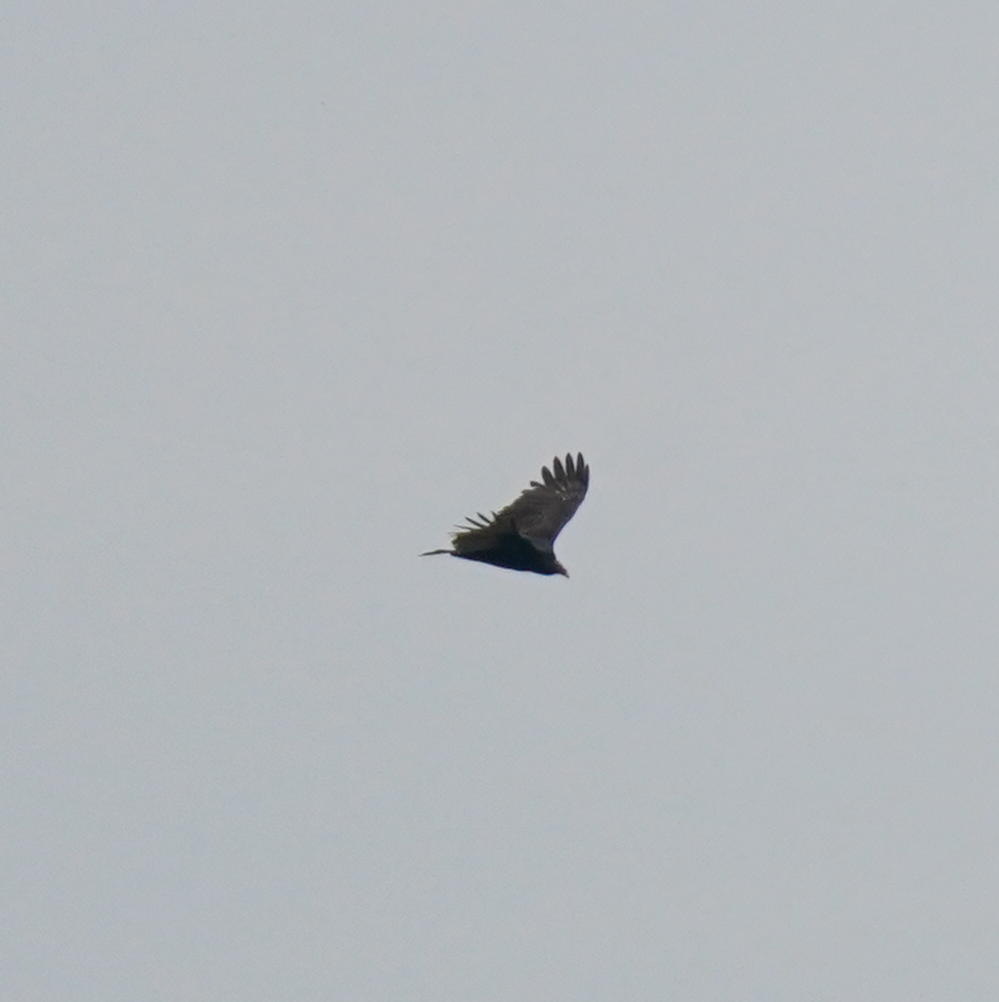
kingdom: Animalia
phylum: Chordata
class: Aves
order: Accipitriformes
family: Cathartidae
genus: Cathartes
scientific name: Cathartes aura
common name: Turkey vulture
